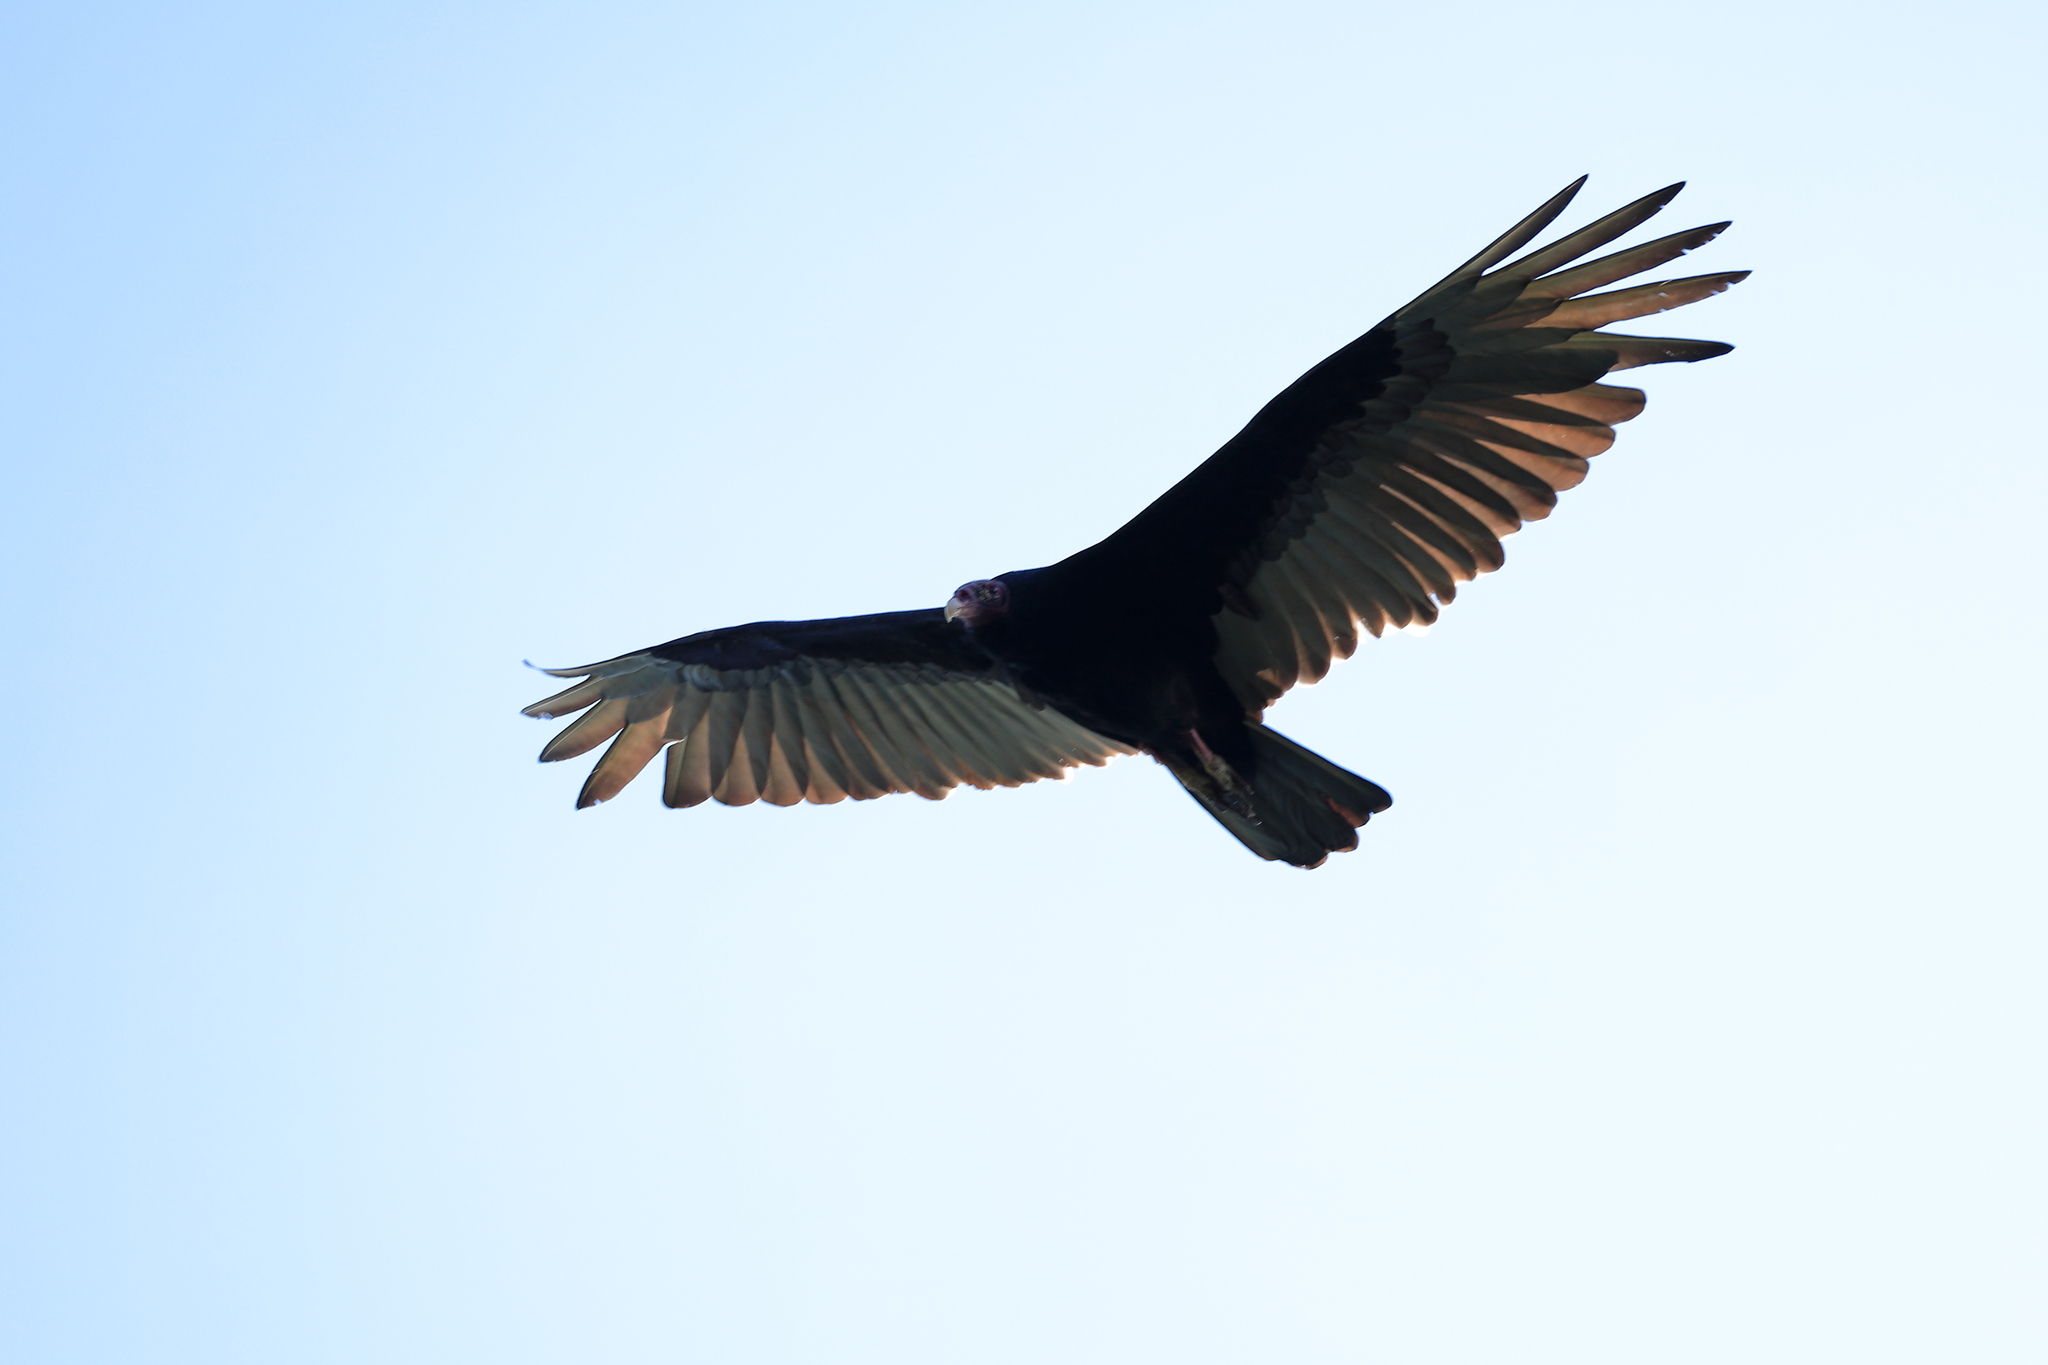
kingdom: Animalia
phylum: Chordata
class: Aves
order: Accipitriformes
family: Cathartidae
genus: Cathartes
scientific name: Cathartes aura
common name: Turkey vulture
